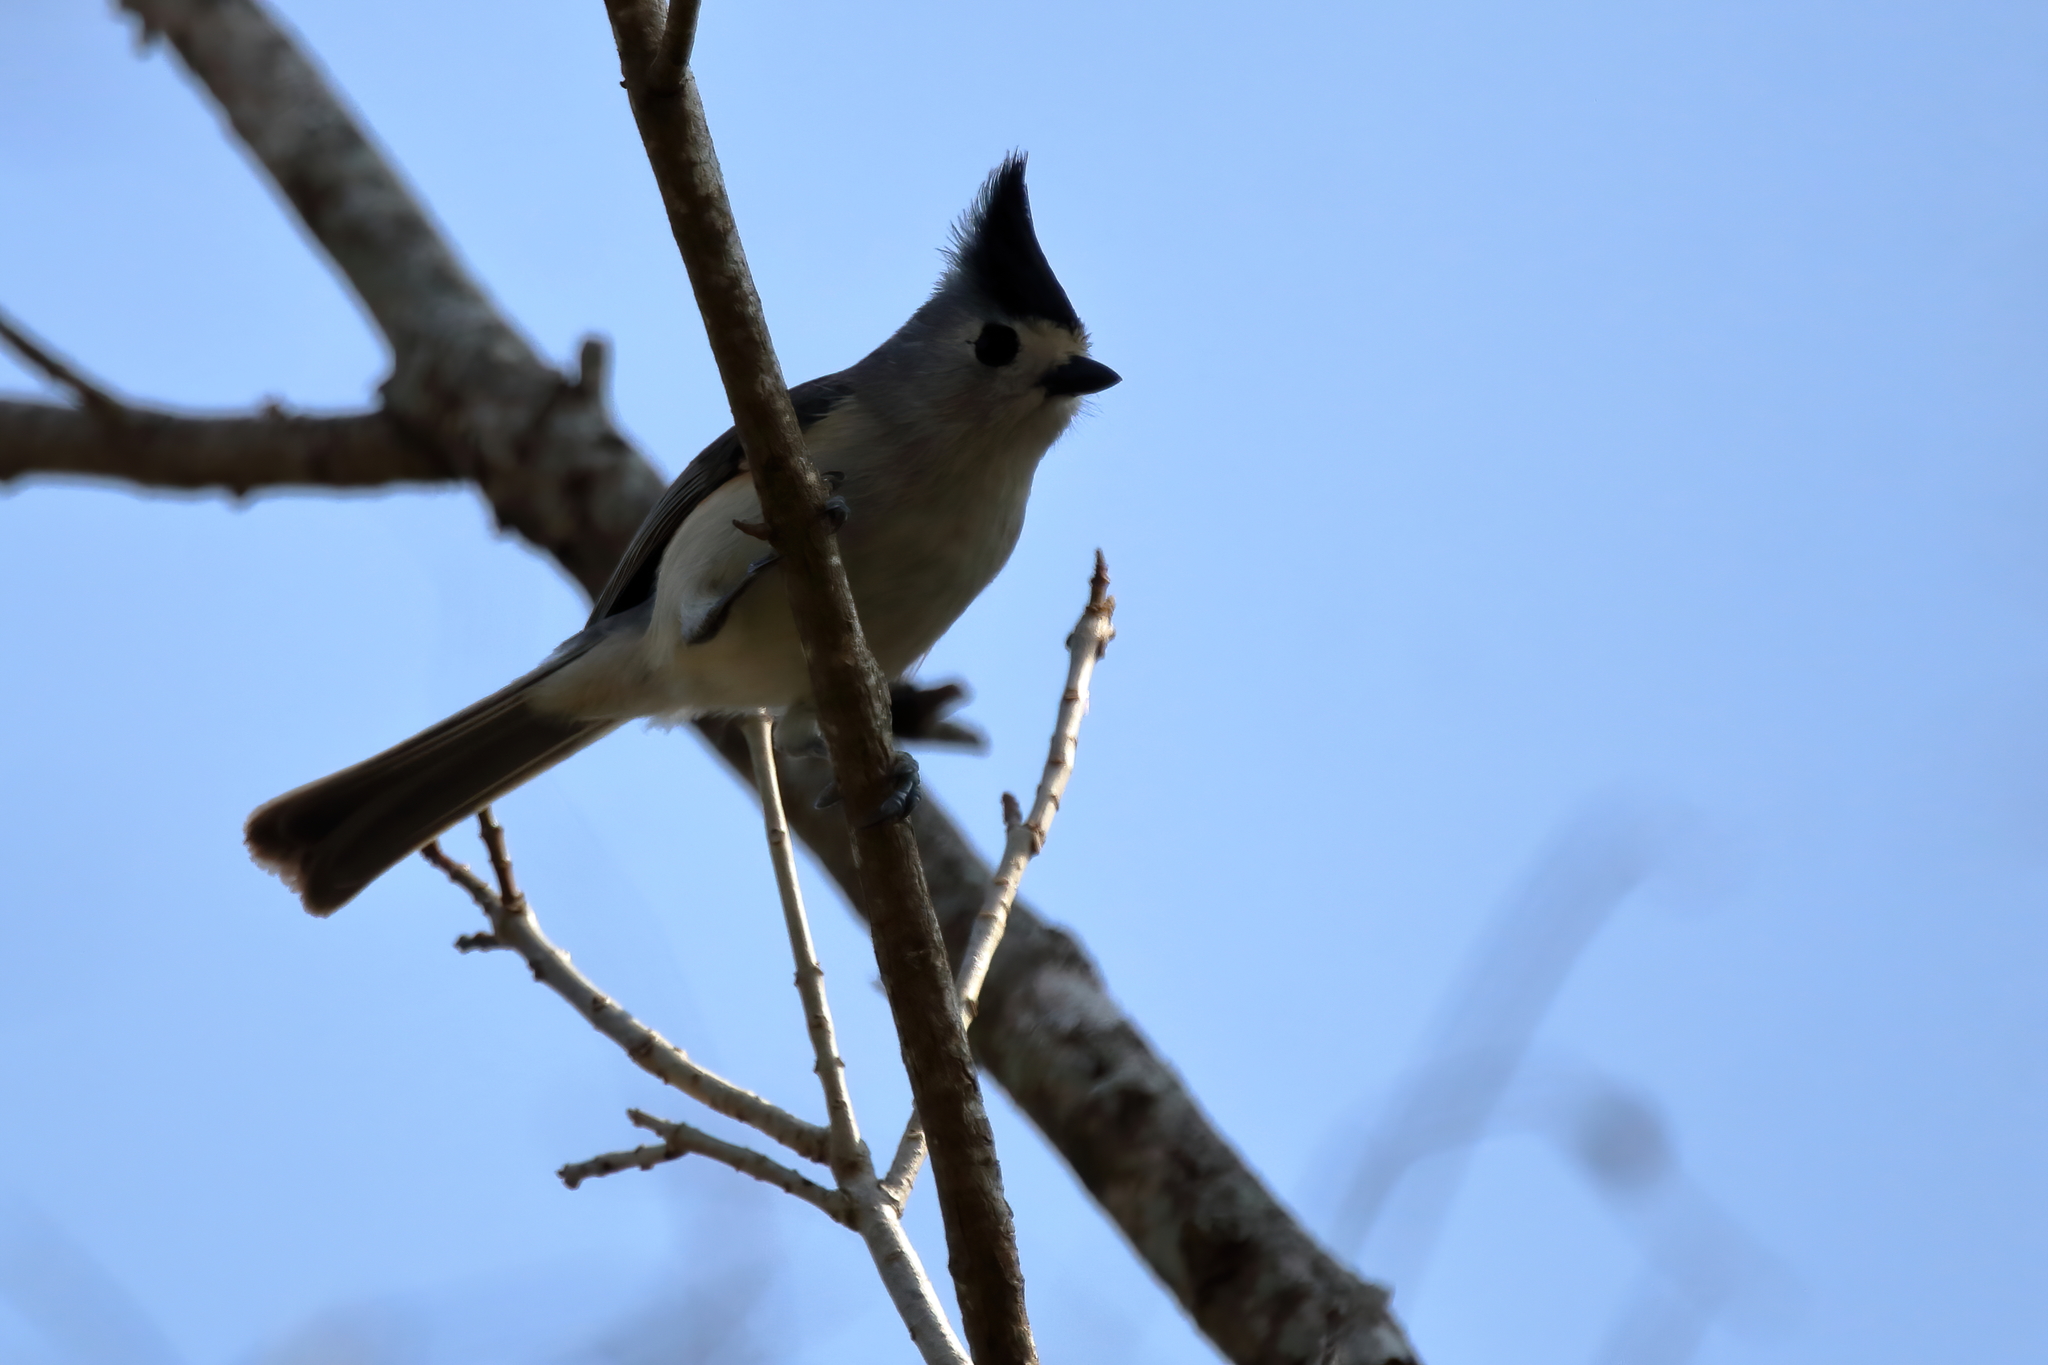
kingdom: Animalia
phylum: Chordata
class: Aves
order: Passeriformes
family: Paridae
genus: Baeolophus
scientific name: Baeolophus atricristatus
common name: Black-crested titmouse
